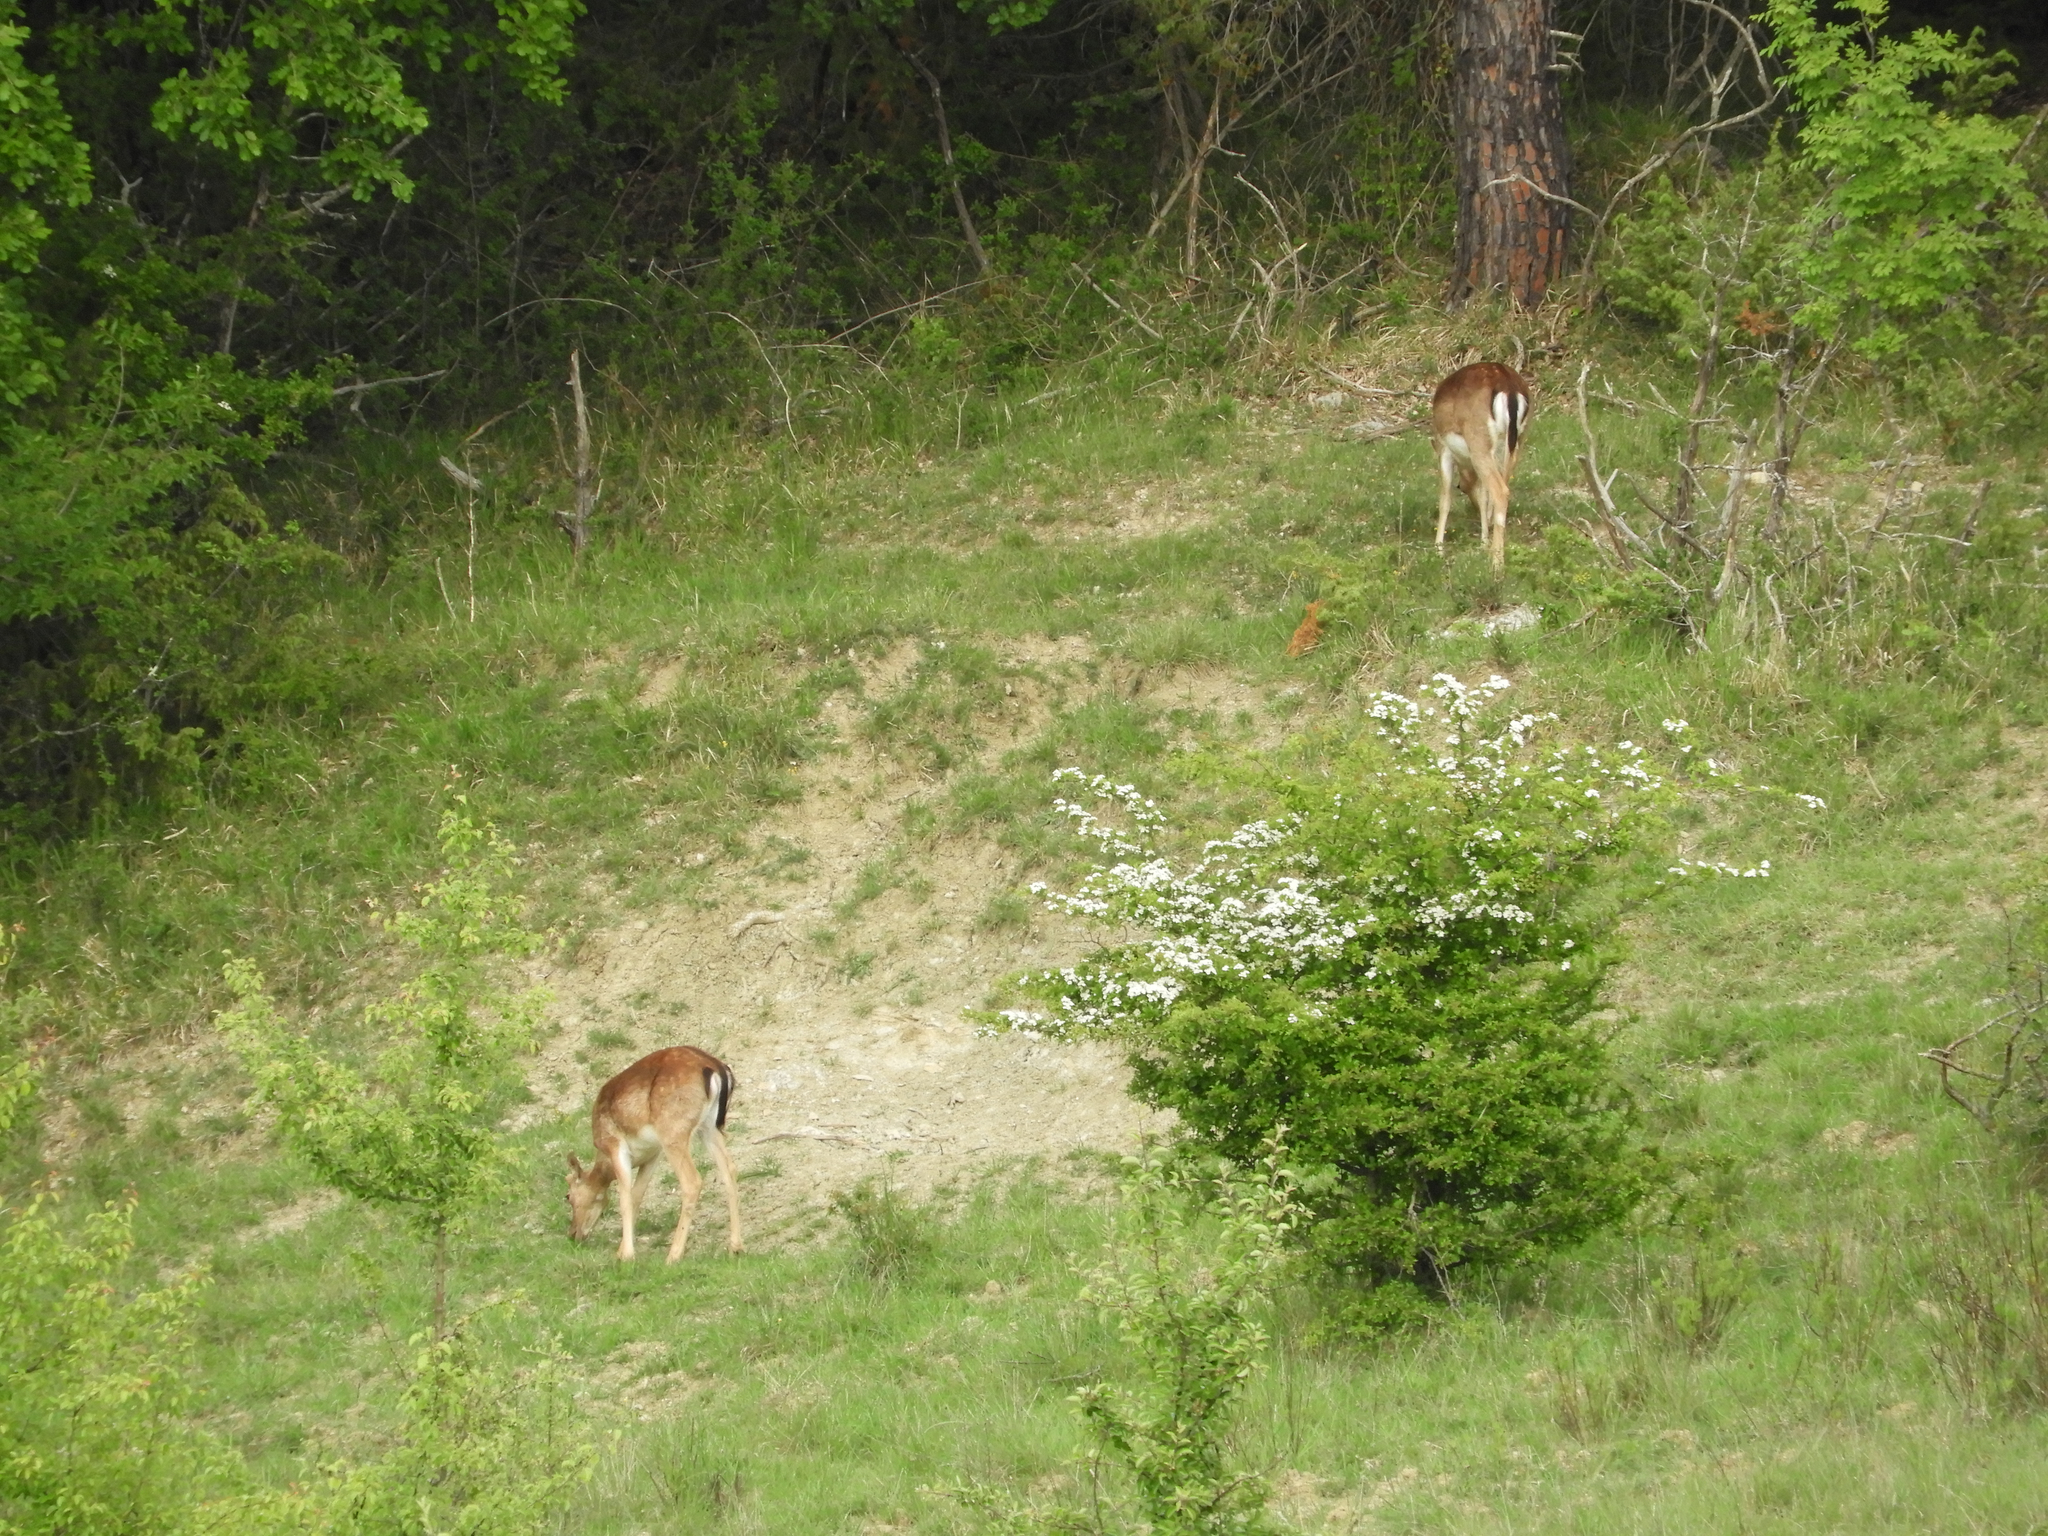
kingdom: Animalia
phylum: Chordata
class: Mammalia
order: Artiodactyla
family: Cervidae
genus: Dama
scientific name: Dama dama
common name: Fallow deer
